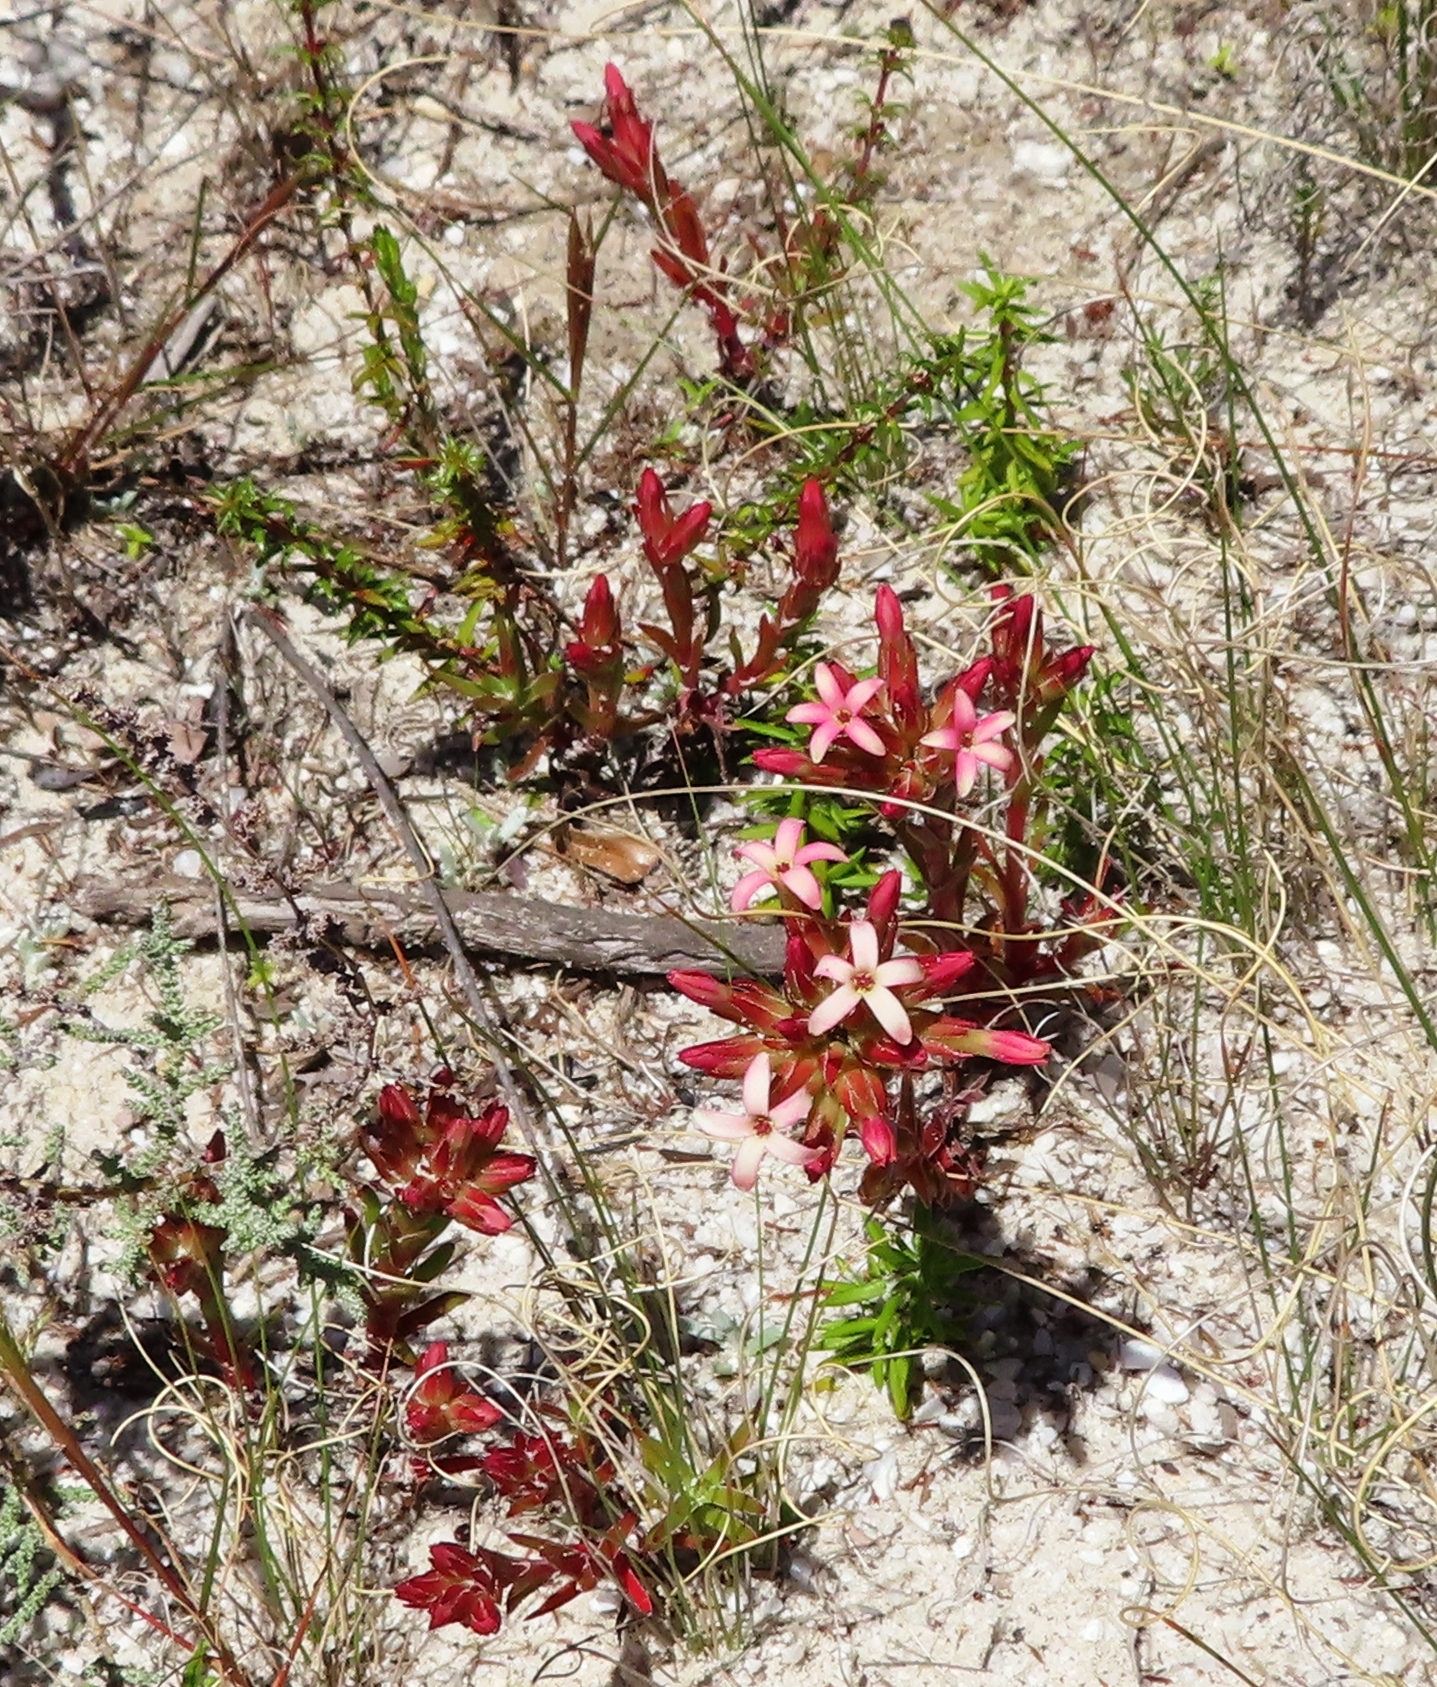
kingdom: Plantae
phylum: Tracheophyta
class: Magnoliopsida
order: Saxifragales
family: Crassulaceae
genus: Crassula
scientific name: Crassula fascicularis
